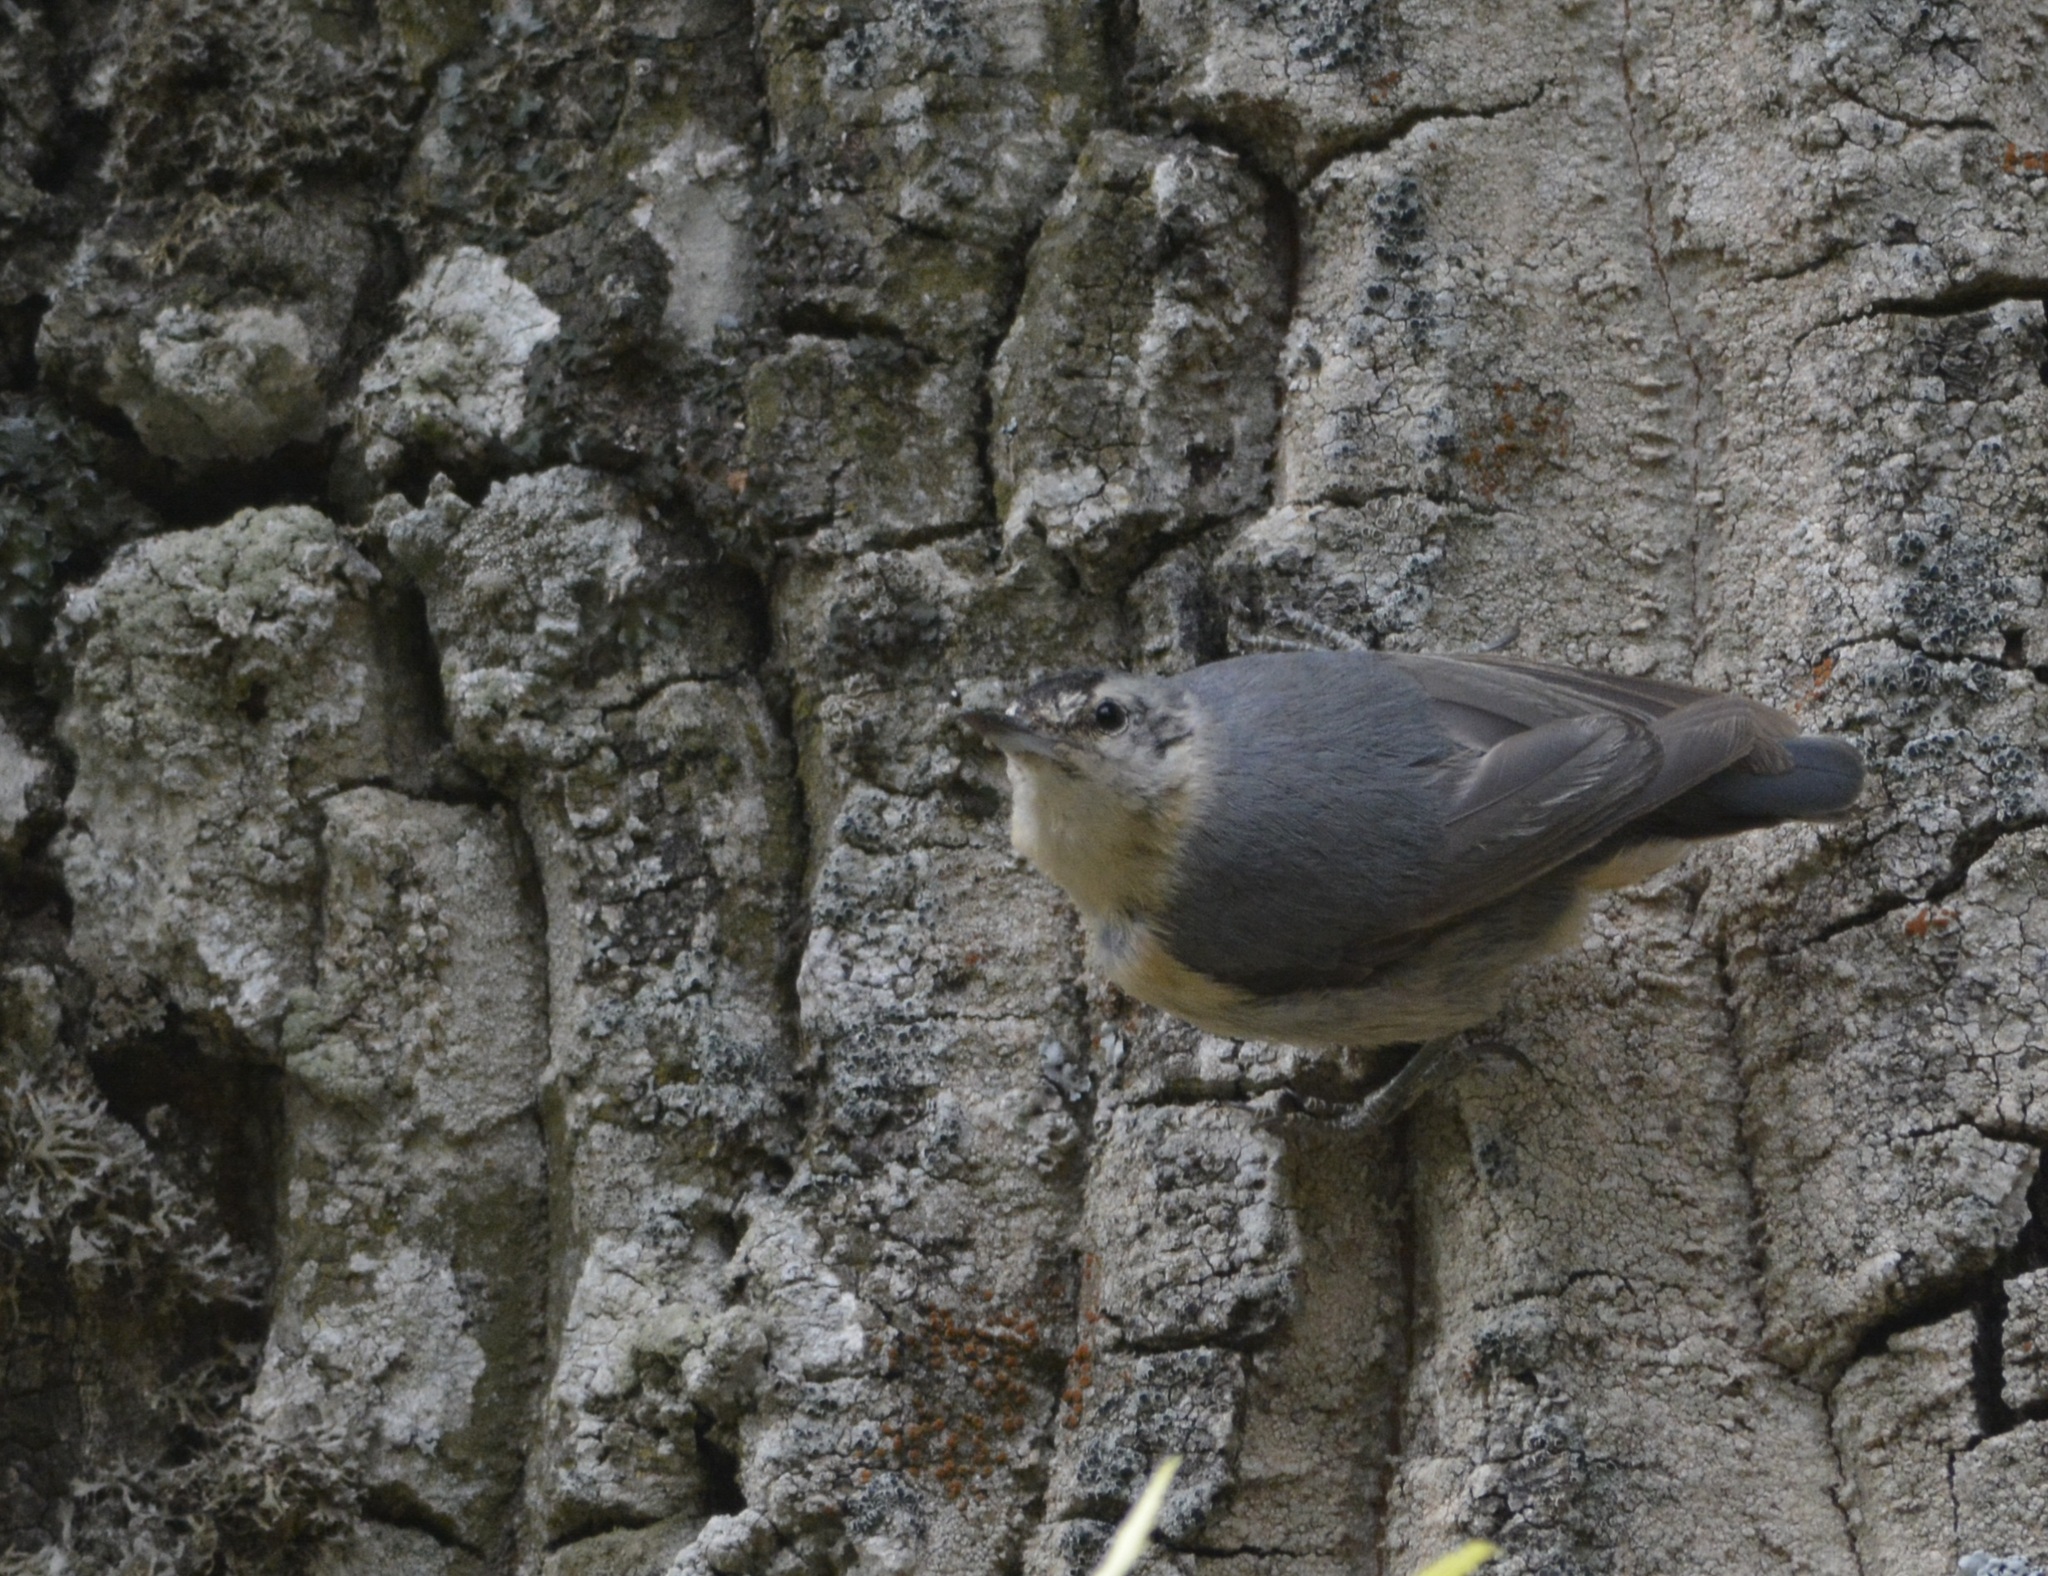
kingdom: Animalia
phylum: Chordata
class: Aves
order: Passeriformes
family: Sittidae
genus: Sitta
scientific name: Sitta ledanti
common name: Algerian nuthatch
